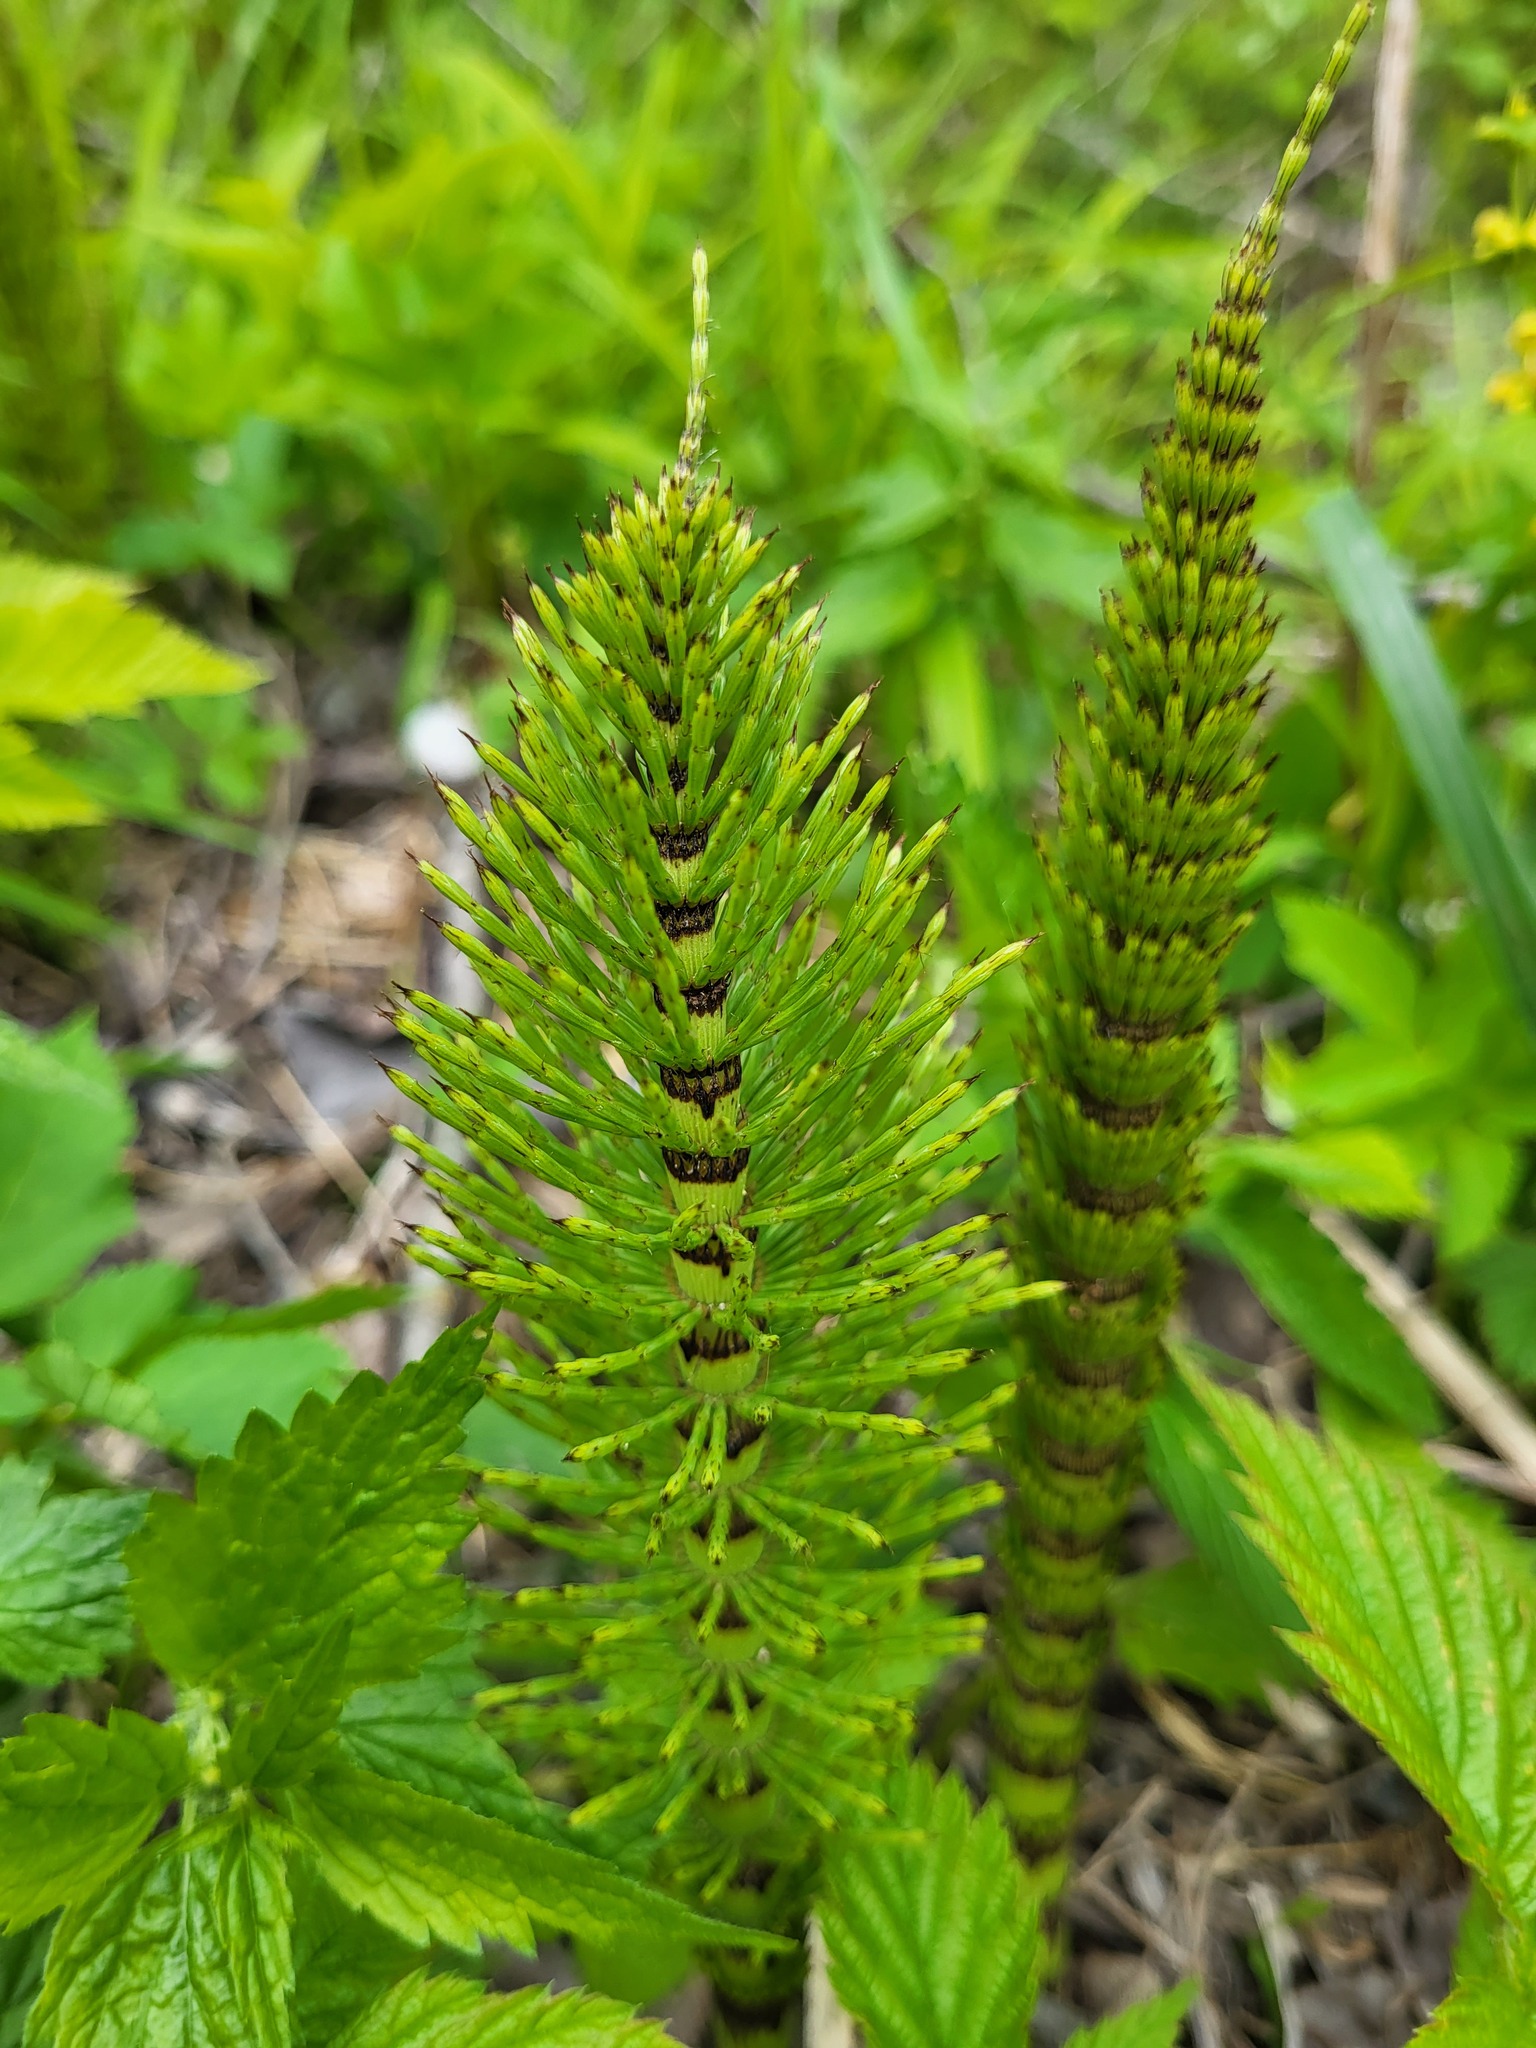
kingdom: Plantae
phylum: Tracheophyta
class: Polypodiopsida
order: Equisetales
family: Equisetaceae
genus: Equisetum
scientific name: Equisetum telmateia
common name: Great horsetail
